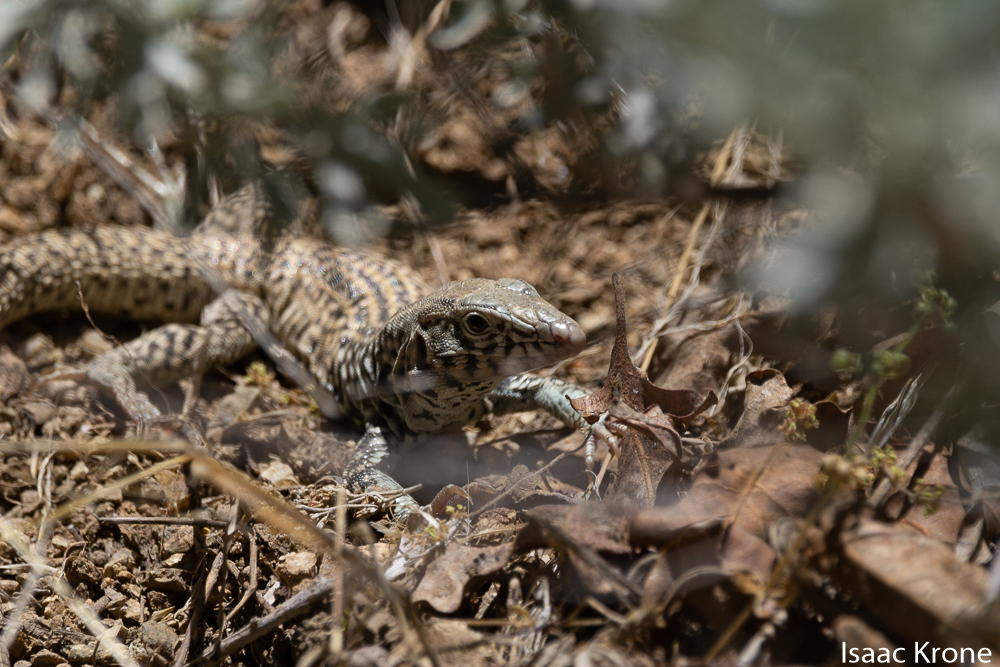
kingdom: Animalia
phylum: Chordata
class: Squamata
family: Teiidae
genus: Aspidoscelis
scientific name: Aspidoscelis tigris
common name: Tiger whiptail
